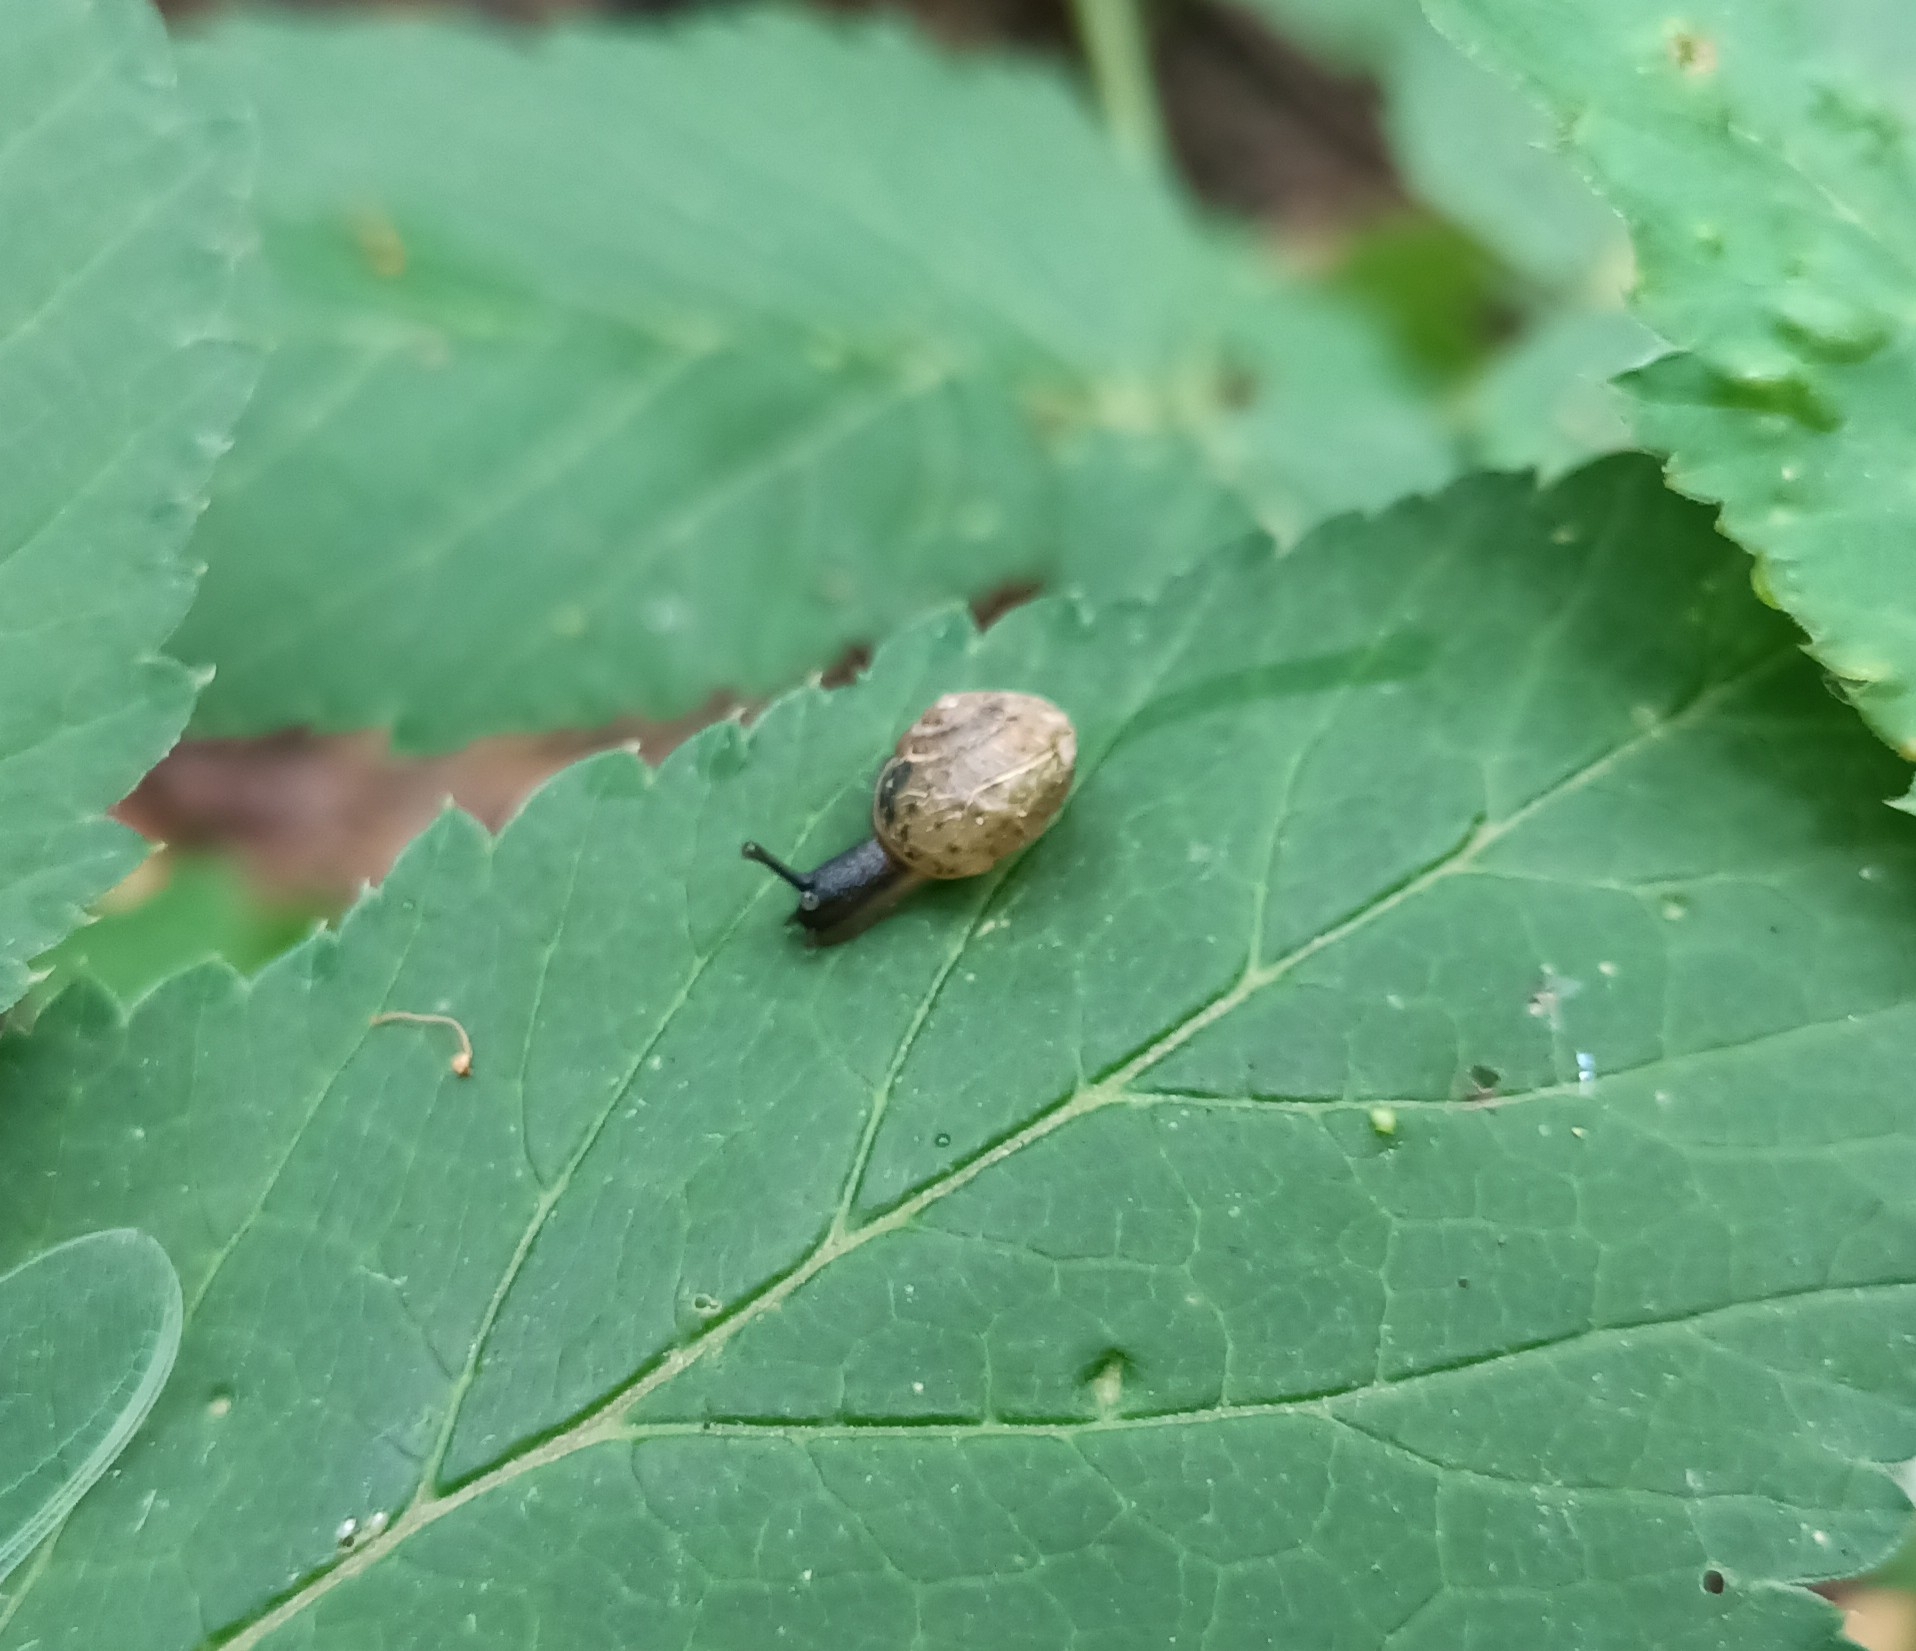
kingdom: Animalia
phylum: Mollusca
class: Gastropoda
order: Stylommatophora
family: Camaenidae
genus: Fruticicola
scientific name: Fruticicola fruticum
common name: Bush snail
